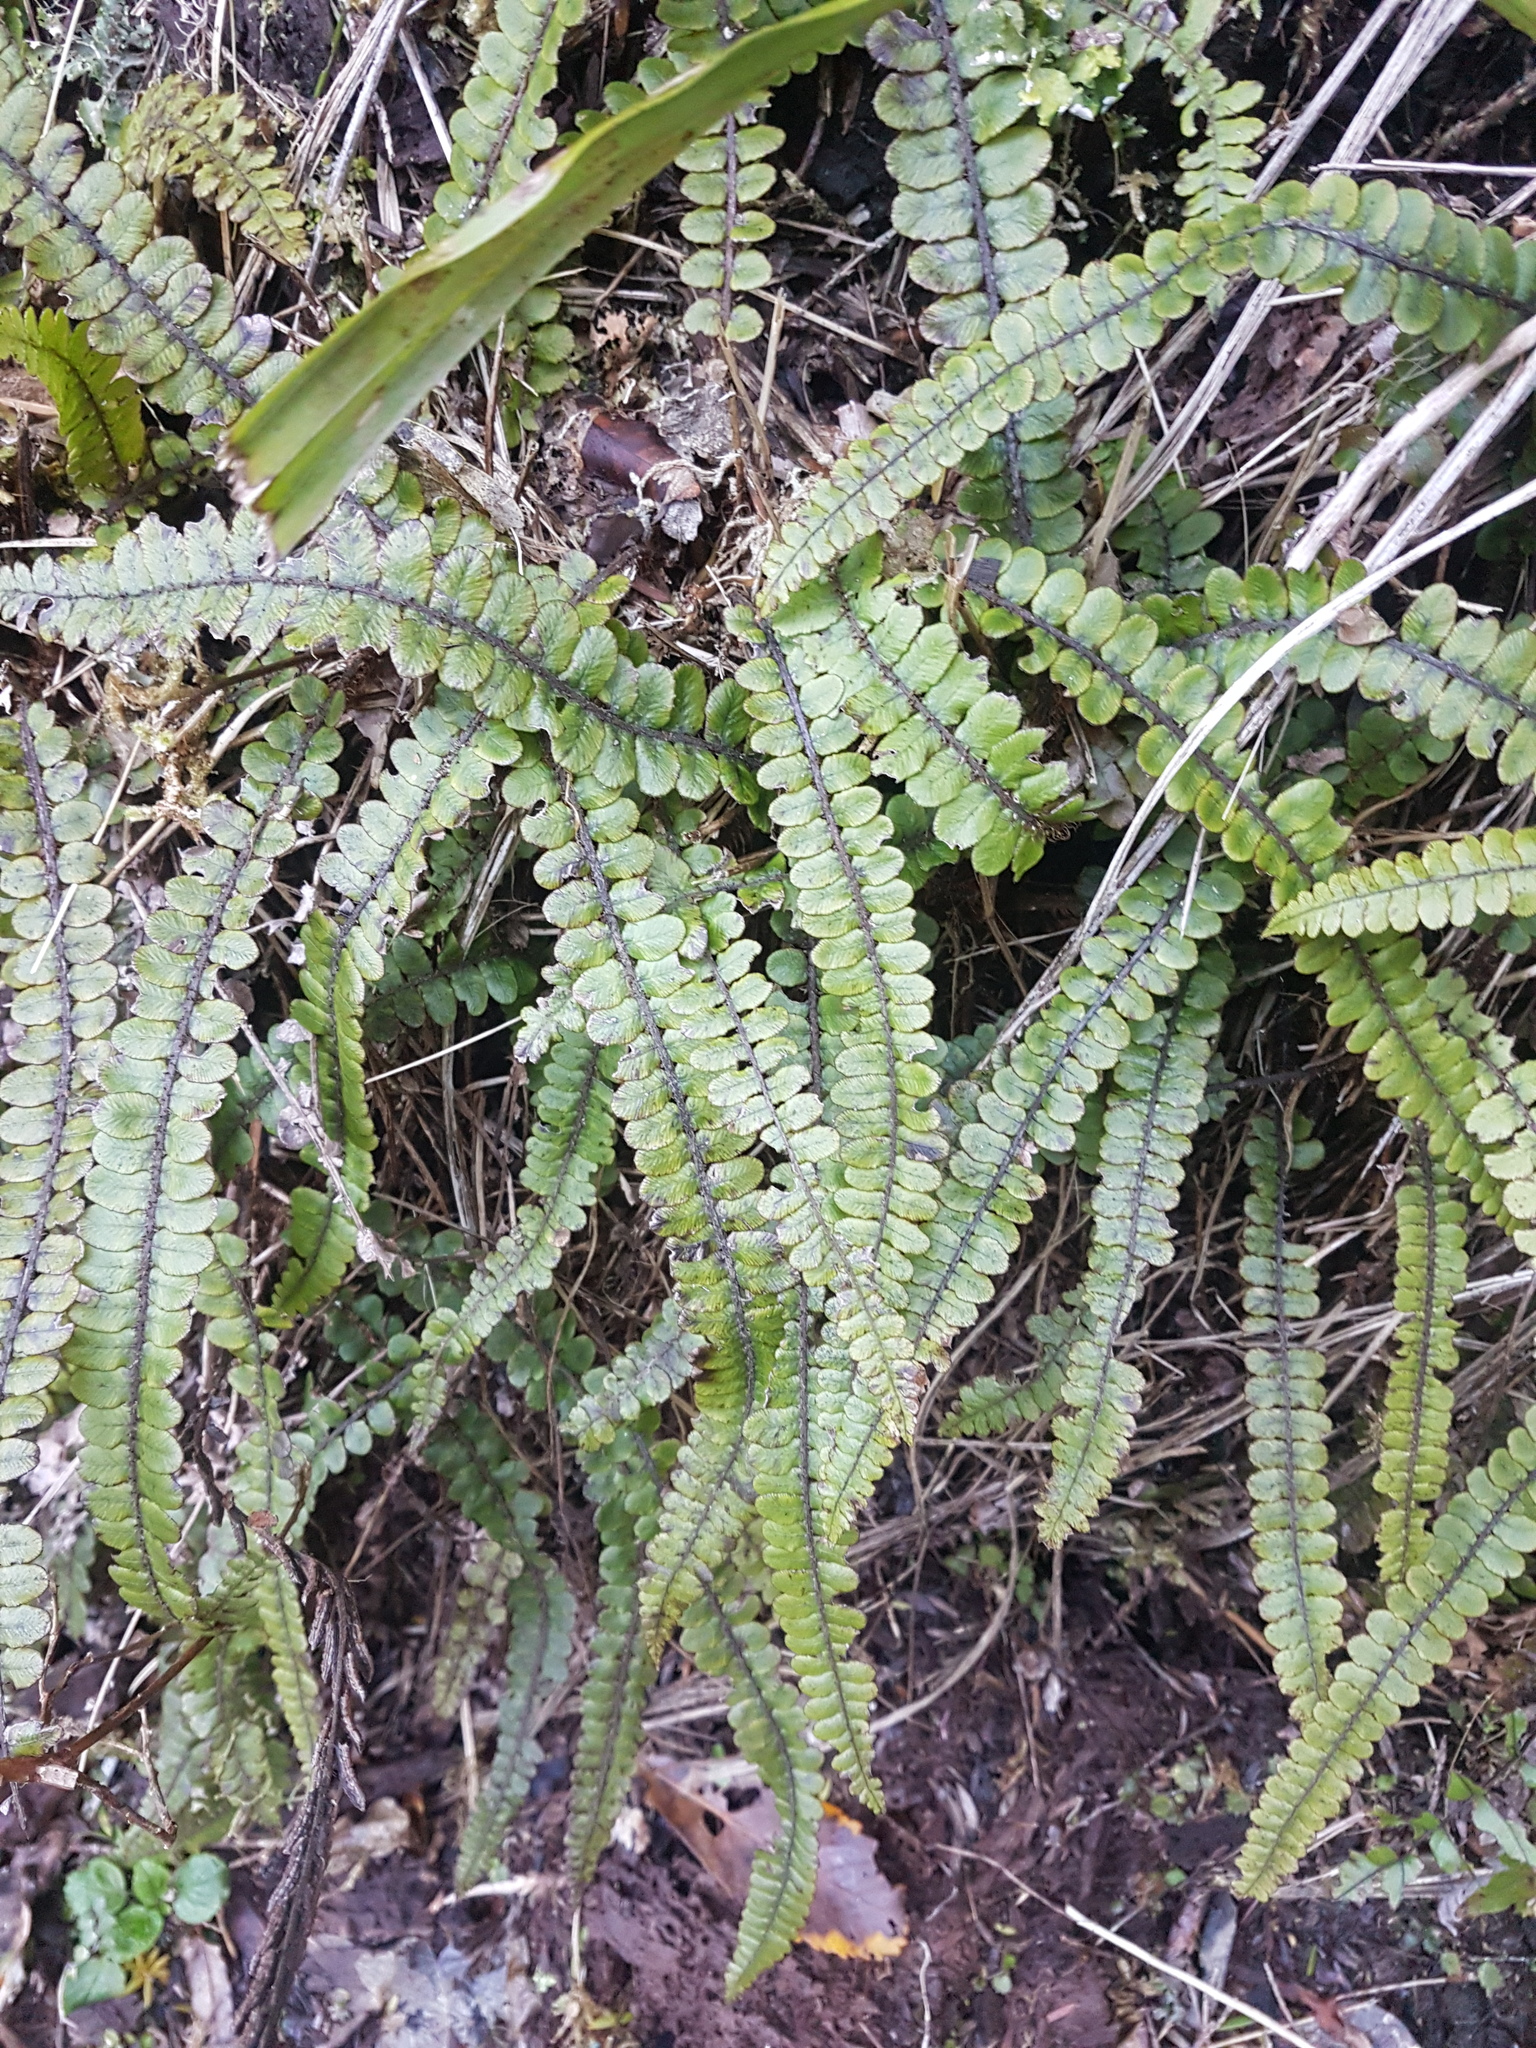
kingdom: Plantae
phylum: Tracheophyta
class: Polypodiopsida
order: Polypodiales
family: Blechnaceae
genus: Cranfillia
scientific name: Cranfillia fluviatilis
